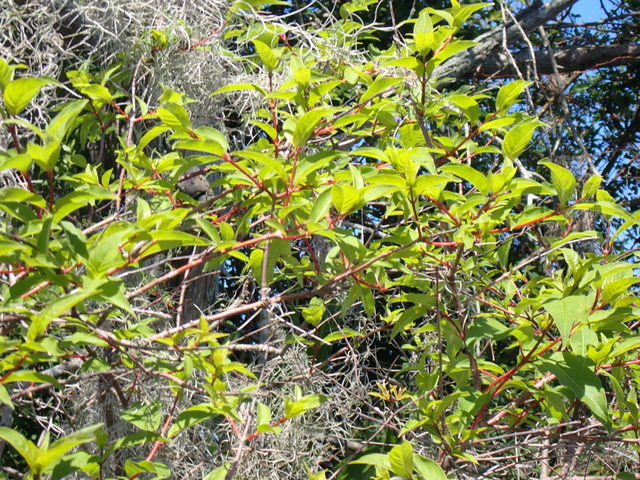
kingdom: Plantae
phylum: Tracheophyta
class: Magnoliopsida
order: Cornales
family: Cornaceae
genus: Cornus
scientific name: Cornus foemina
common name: Swamp dogwood
